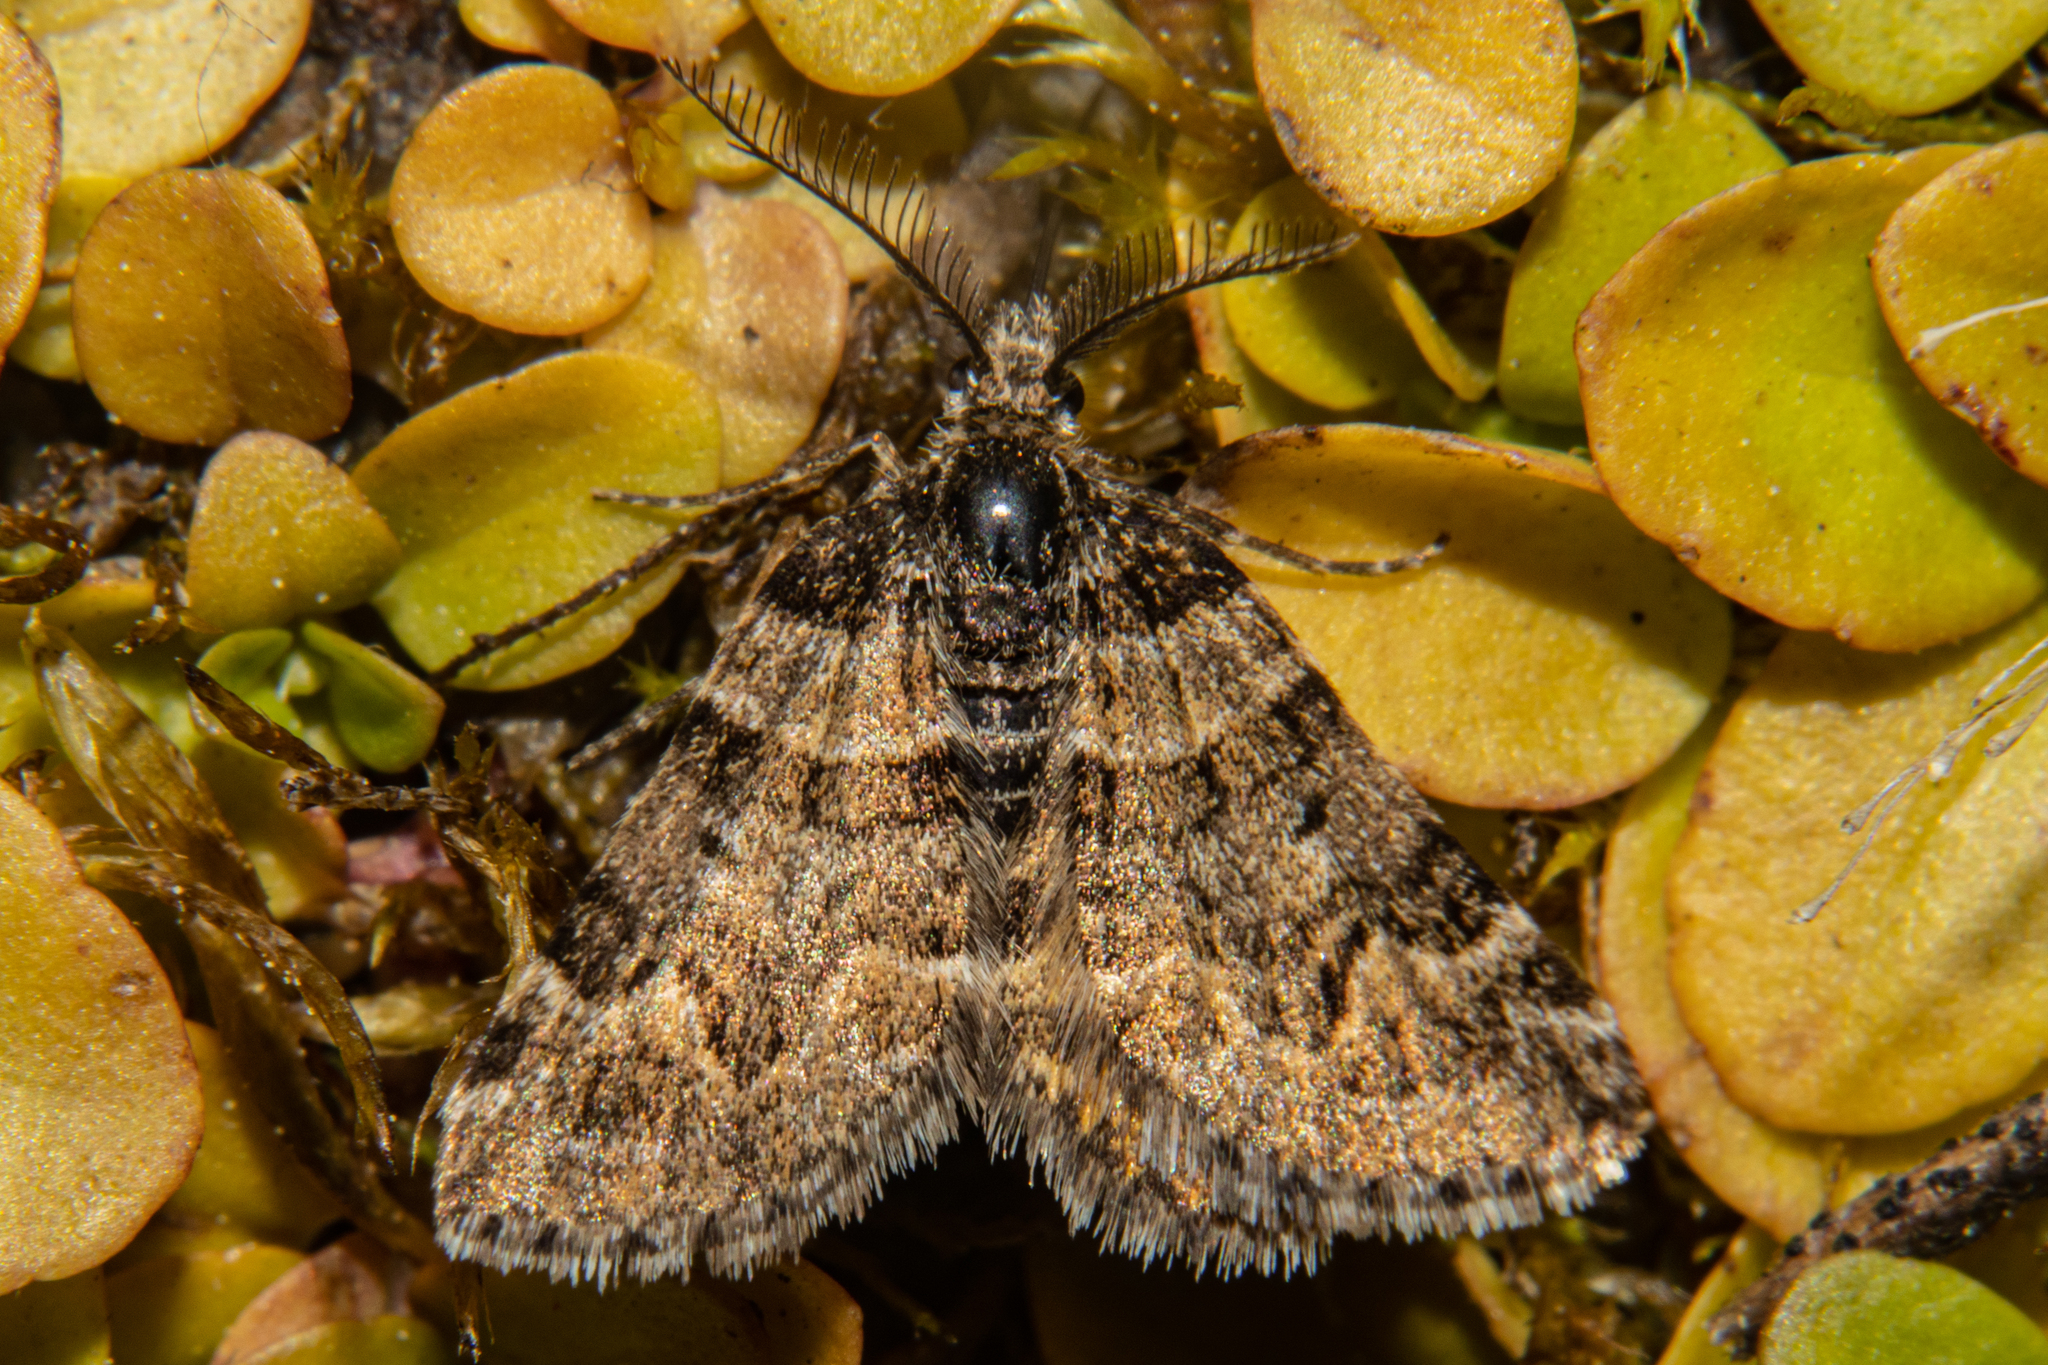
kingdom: Animalia
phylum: Arthropoda
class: Insecta
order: Lepidoptera
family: Geometridae
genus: Arctesthes
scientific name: Arctesthes catapyrrha
